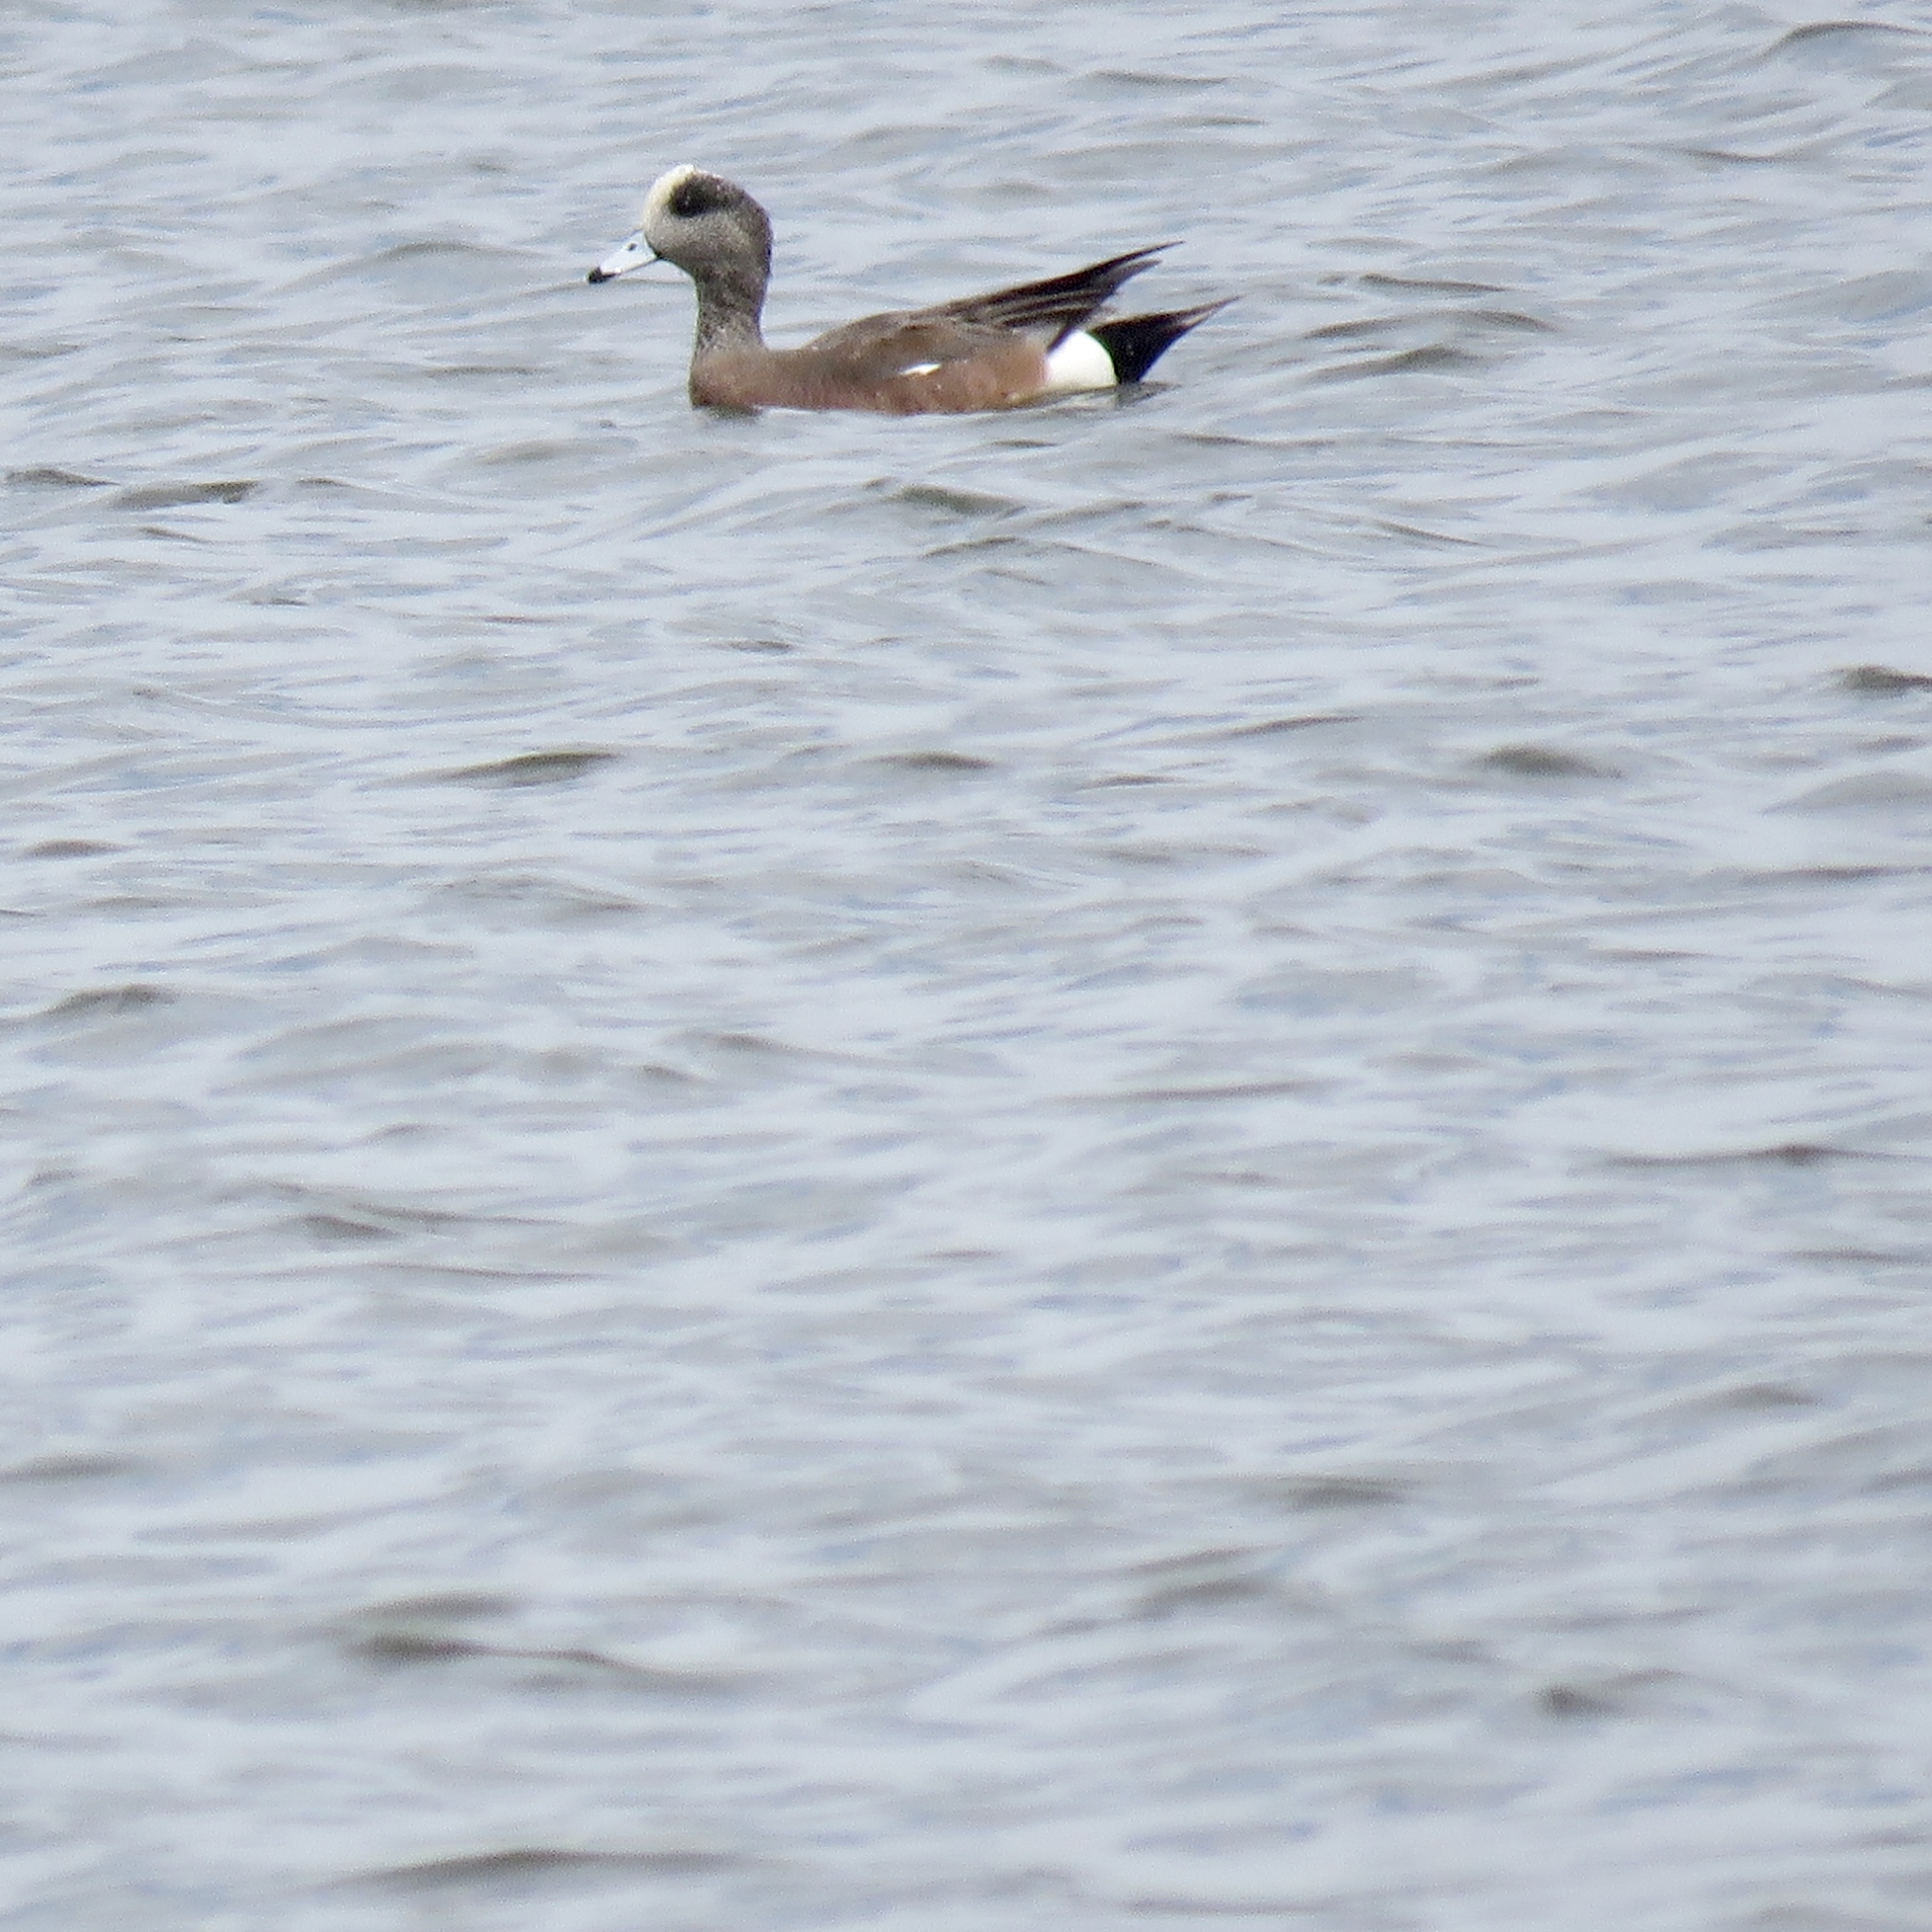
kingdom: Animalia
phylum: Chordata
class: Aves
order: Anseriformes
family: Anatidae
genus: Mareca
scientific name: Mareca americana
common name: American wigeon
